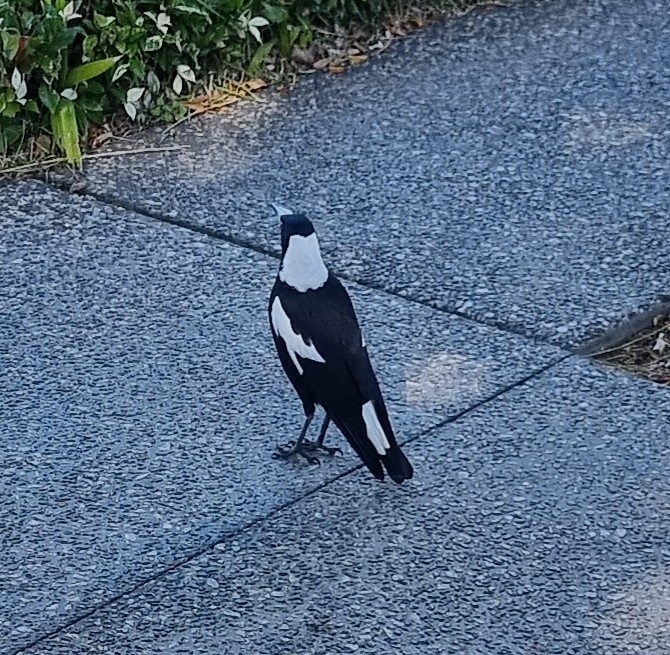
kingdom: Animalia
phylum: Chordata
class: Aves
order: Passeriformes
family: Cracticidae
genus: Gymnorhina
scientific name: Gymnorhina tibicen
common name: Australian magpie
